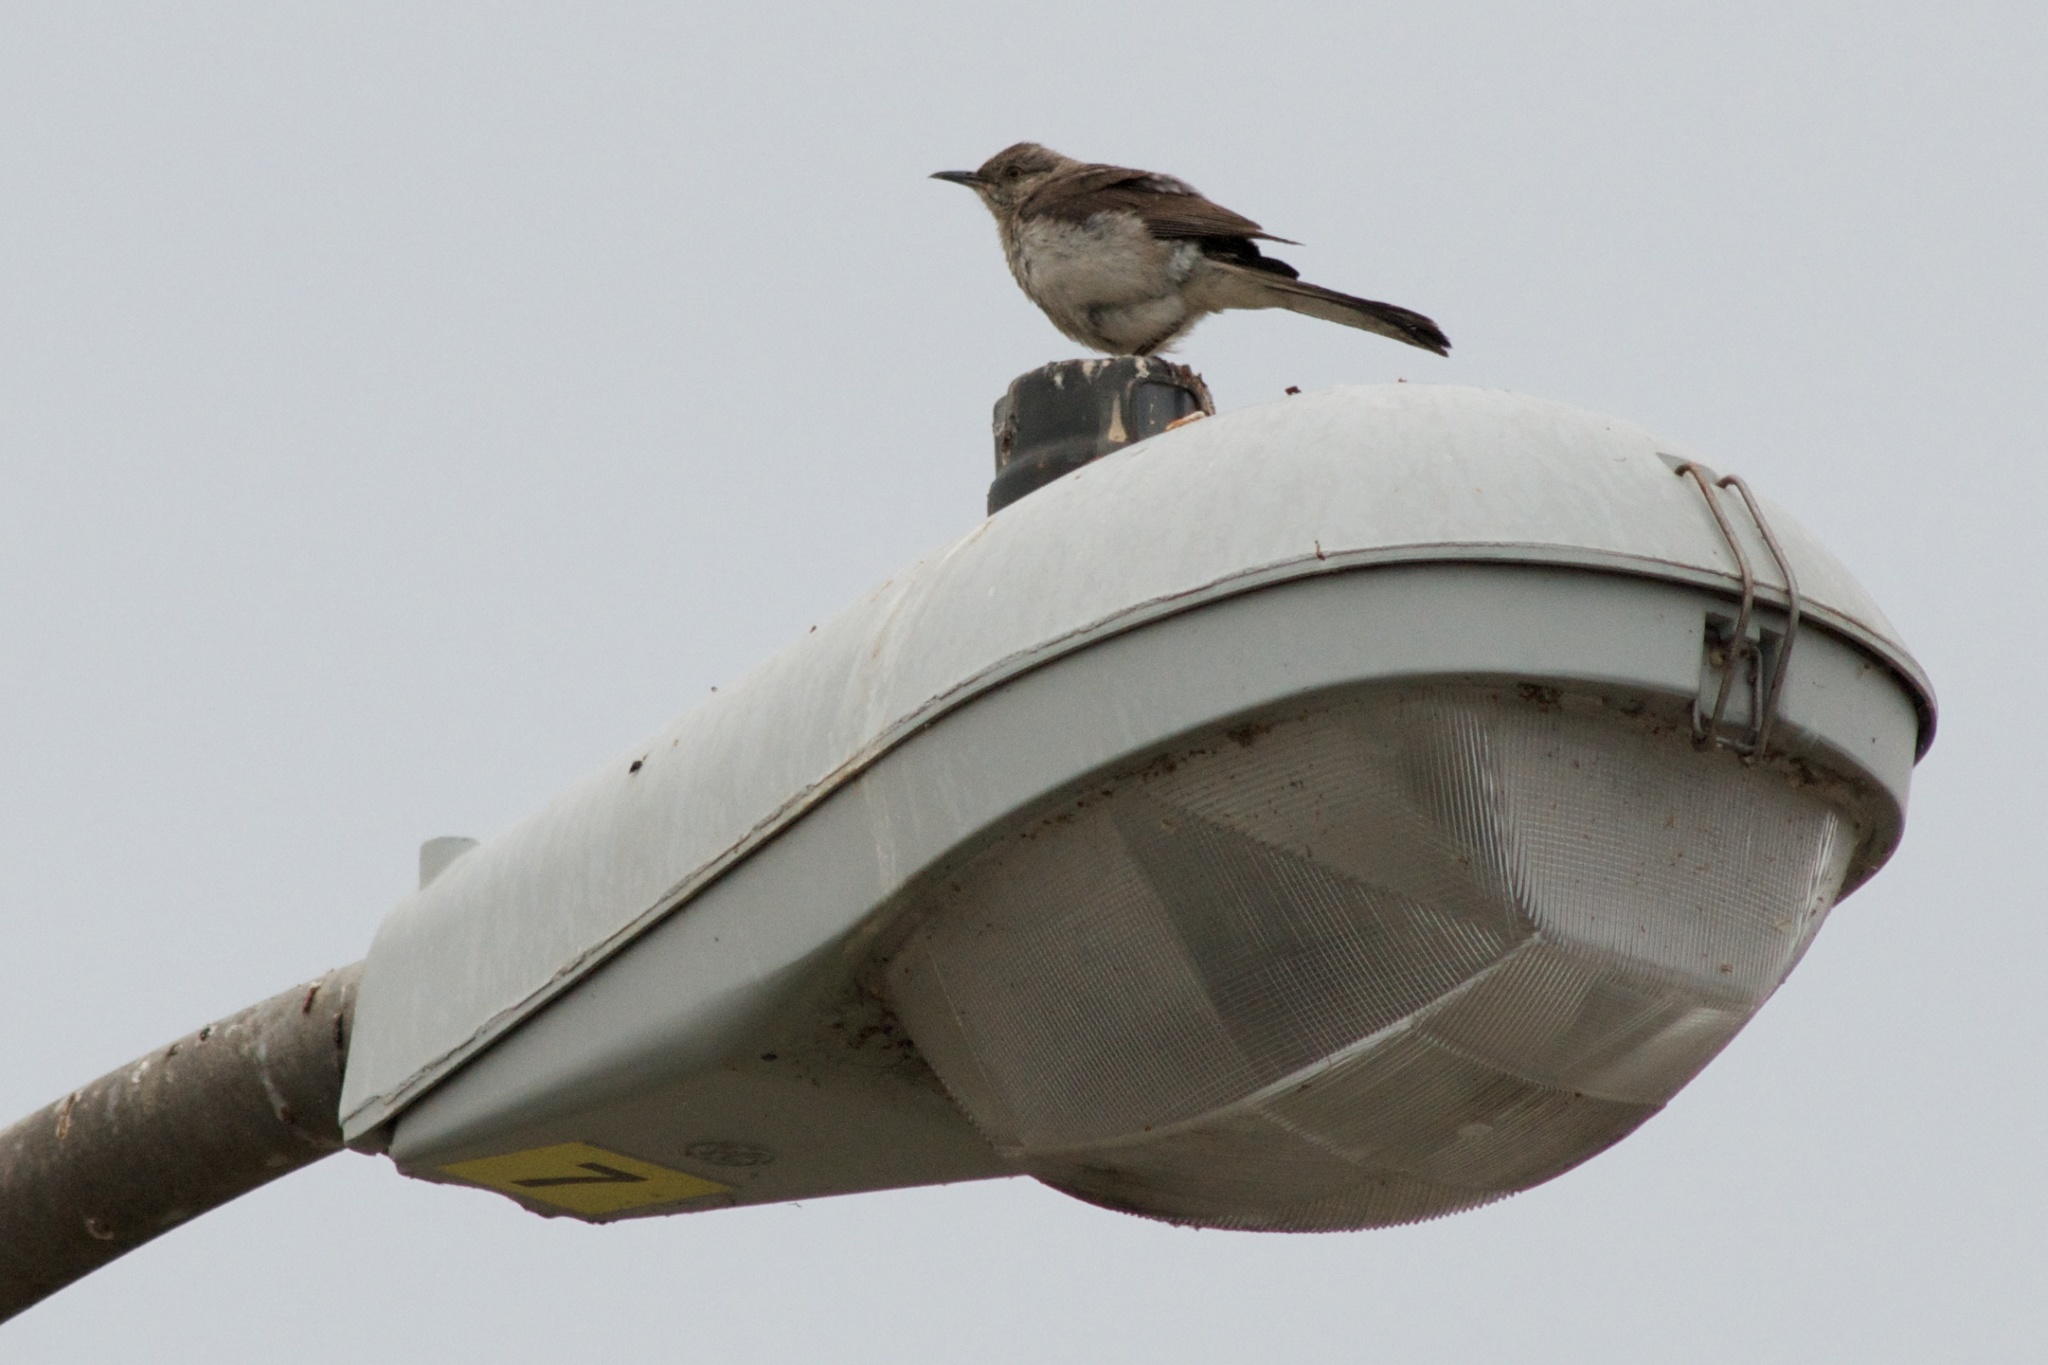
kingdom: Animalia
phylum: Chordata
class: Aves
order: Passeriformes
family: Mimidae
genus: Mimus
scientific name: Mimus polyglottos
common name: Northern mockingbird
